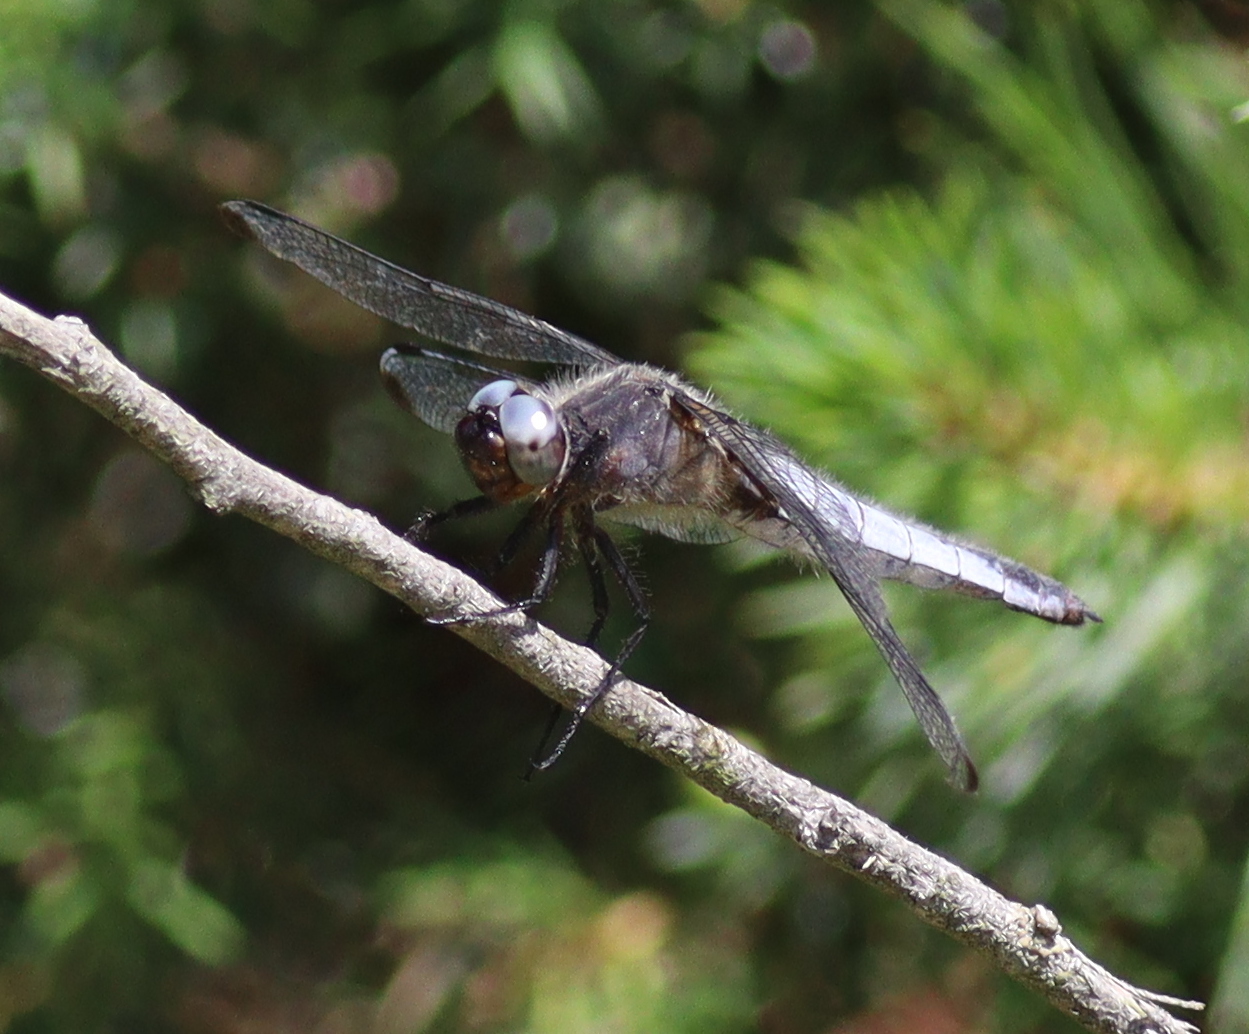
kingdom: Animalia
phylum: Arthropoda
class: Insecta
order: Odonata
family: Libellulidae
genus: Libellula
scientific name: Libellula fulva
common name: Blue chaser
